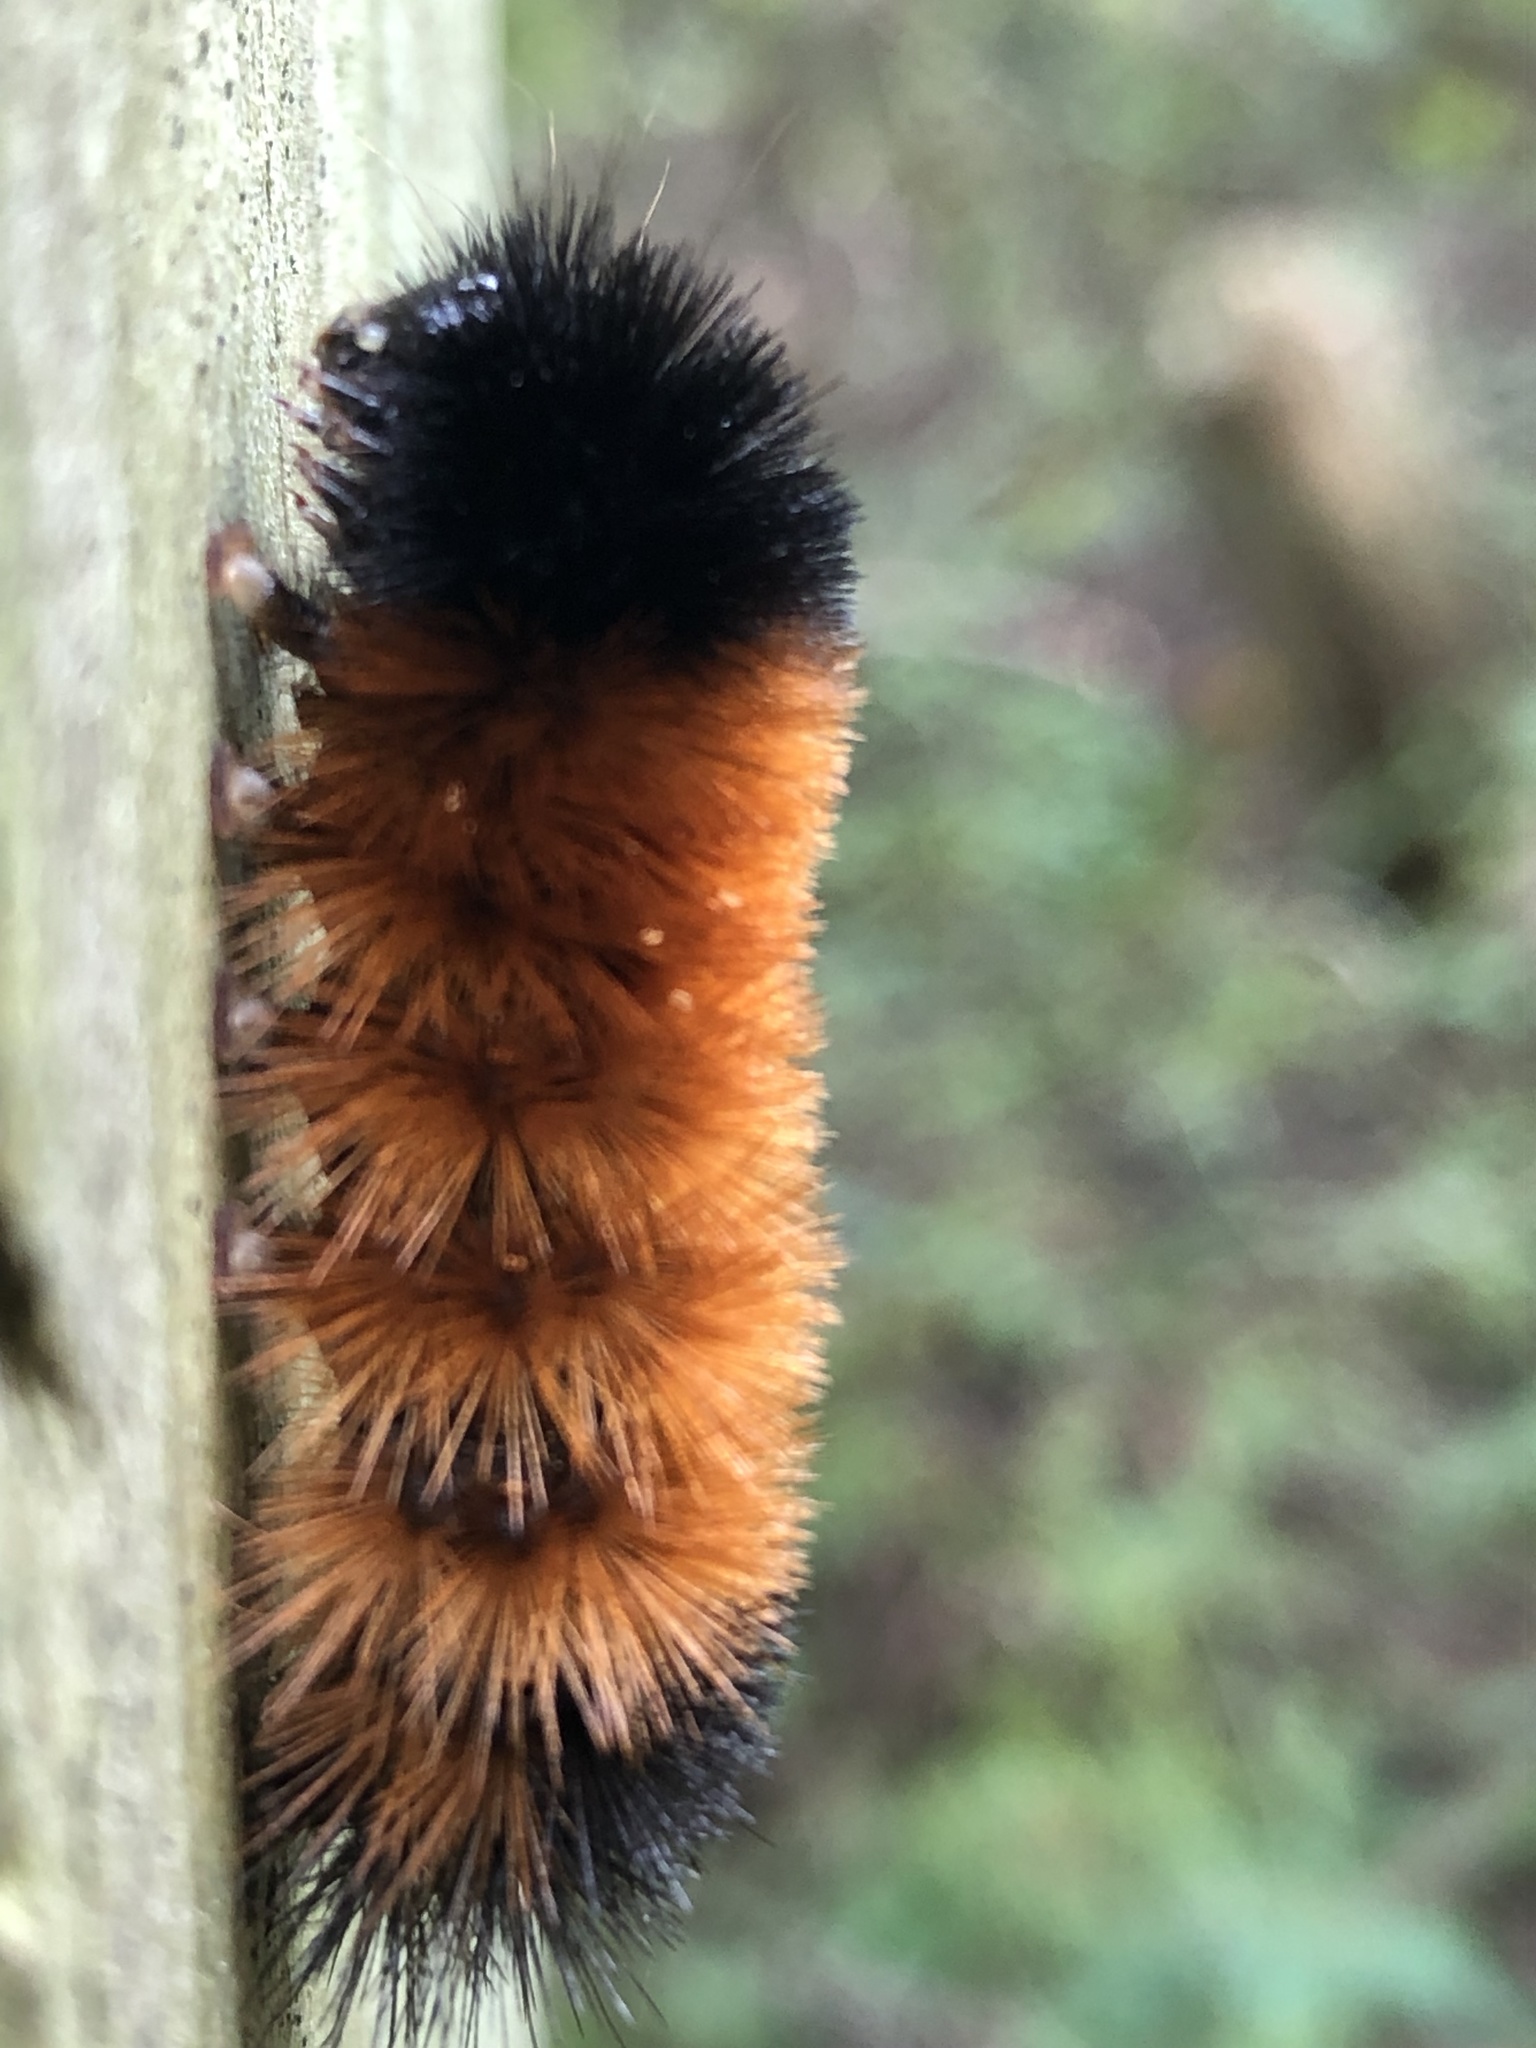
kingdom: Animalia
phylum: Arthropoda
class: Insecta
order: Lepidoptera
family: Erebidae
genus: Pyrrharctia
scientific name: Pyrrharctia isabella
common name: Isabella tiger moth
